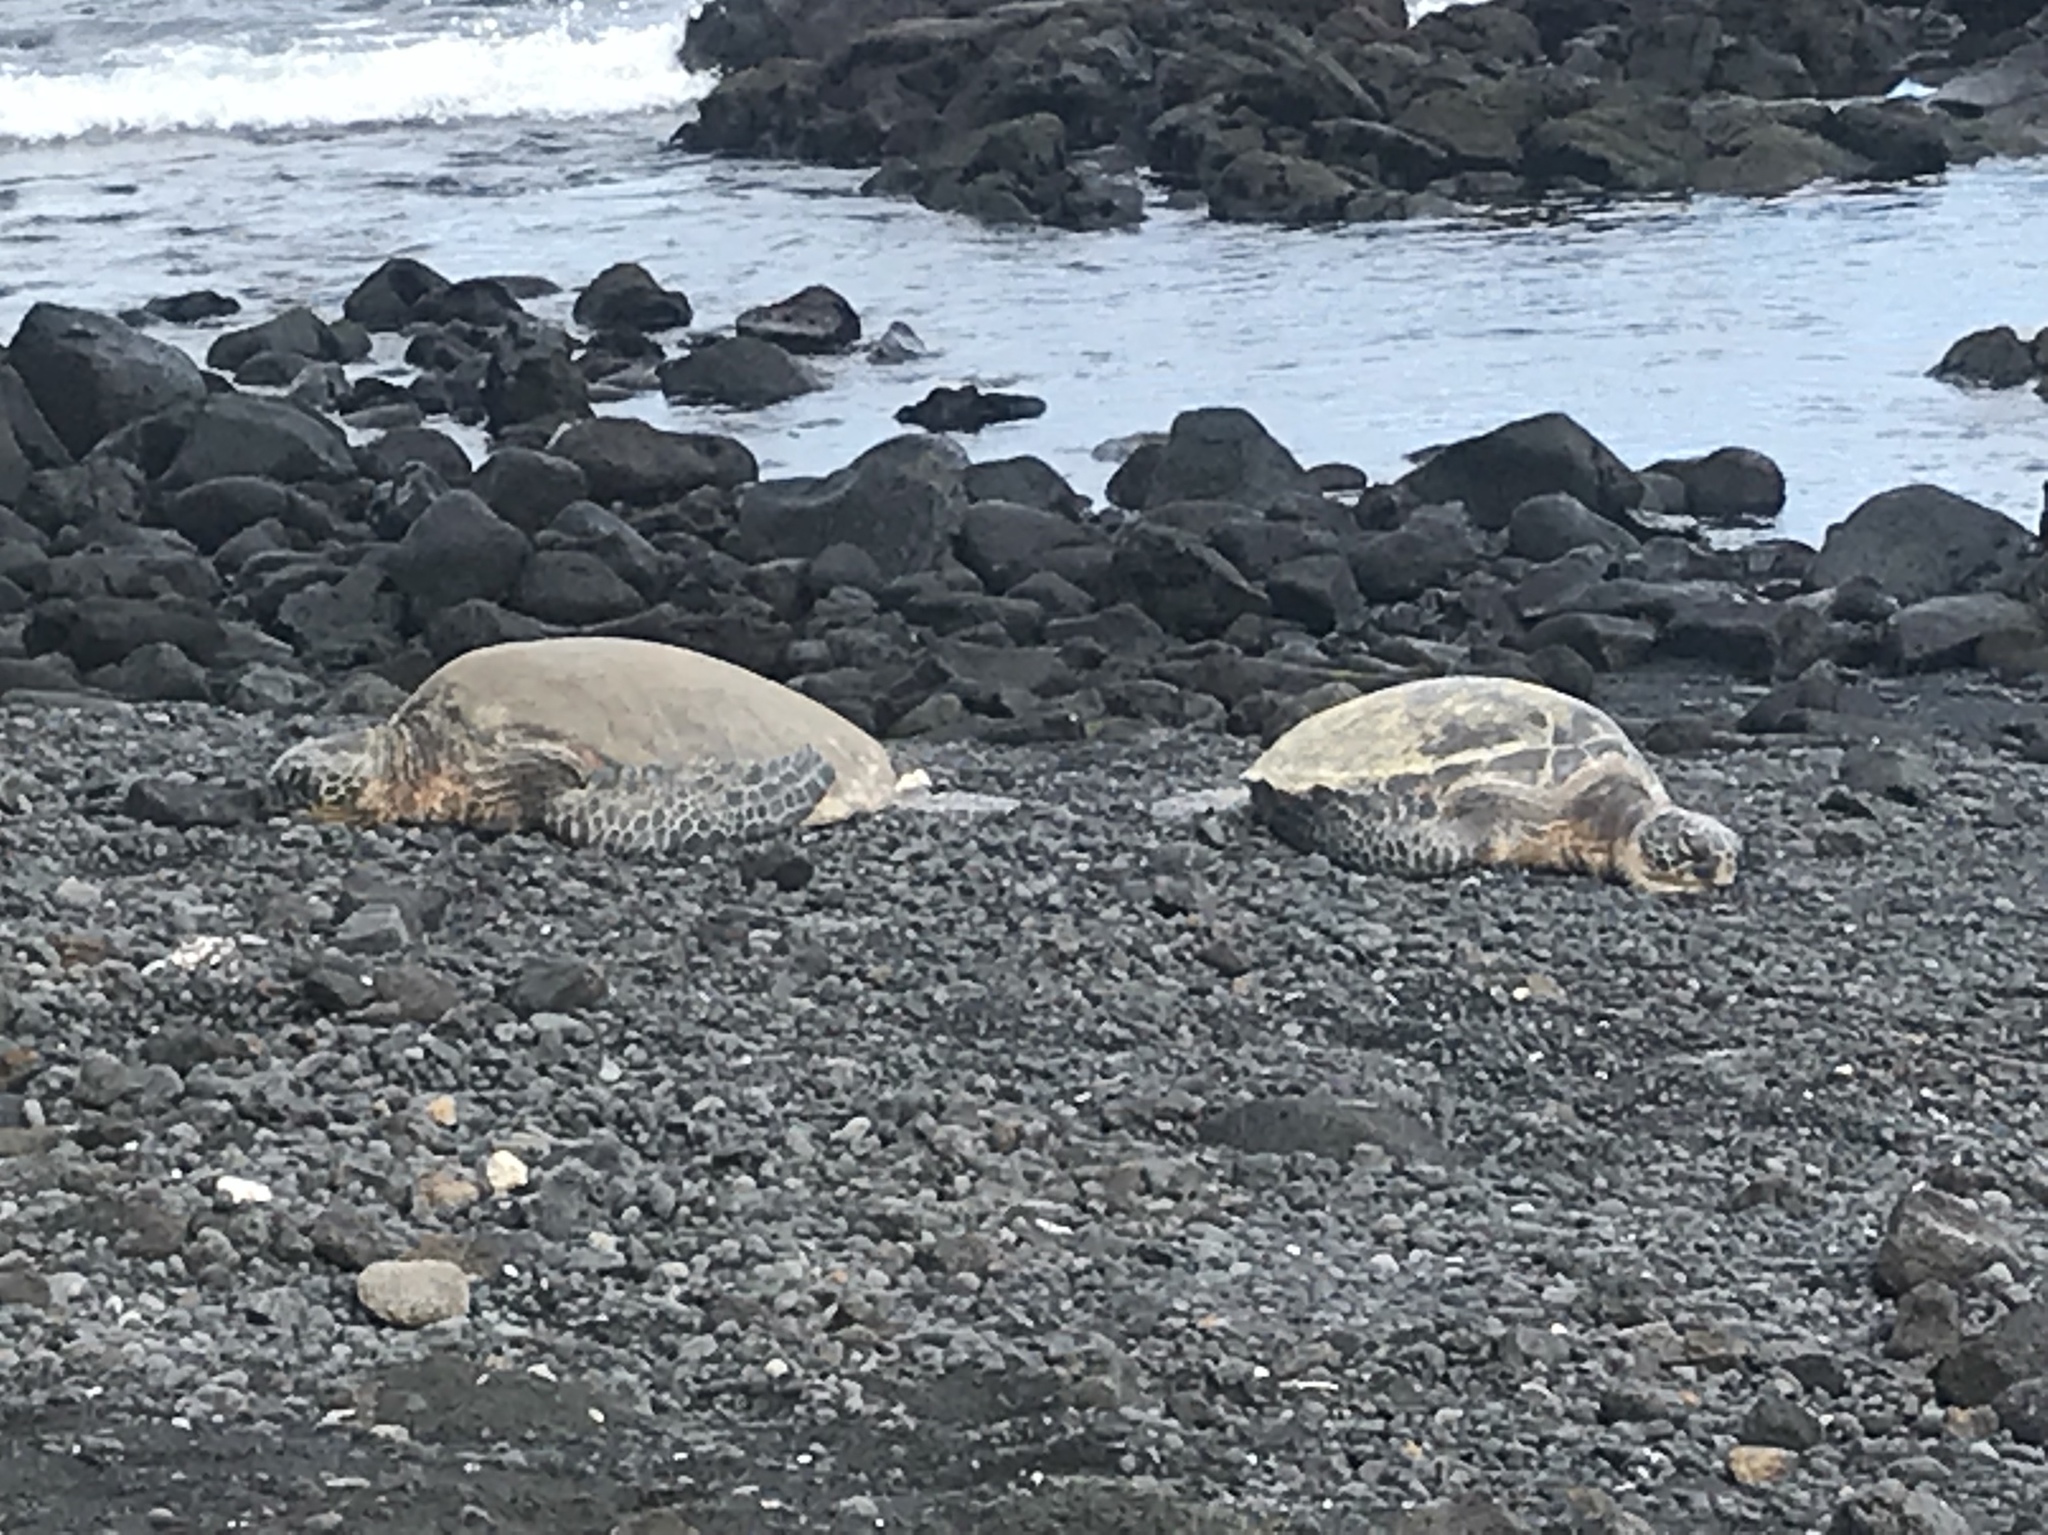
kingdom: Animalia
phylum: Chordata
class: Testudines
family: Cheloniidae
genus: Chelonia
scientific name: Chelonia mydas
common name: Green turtle
